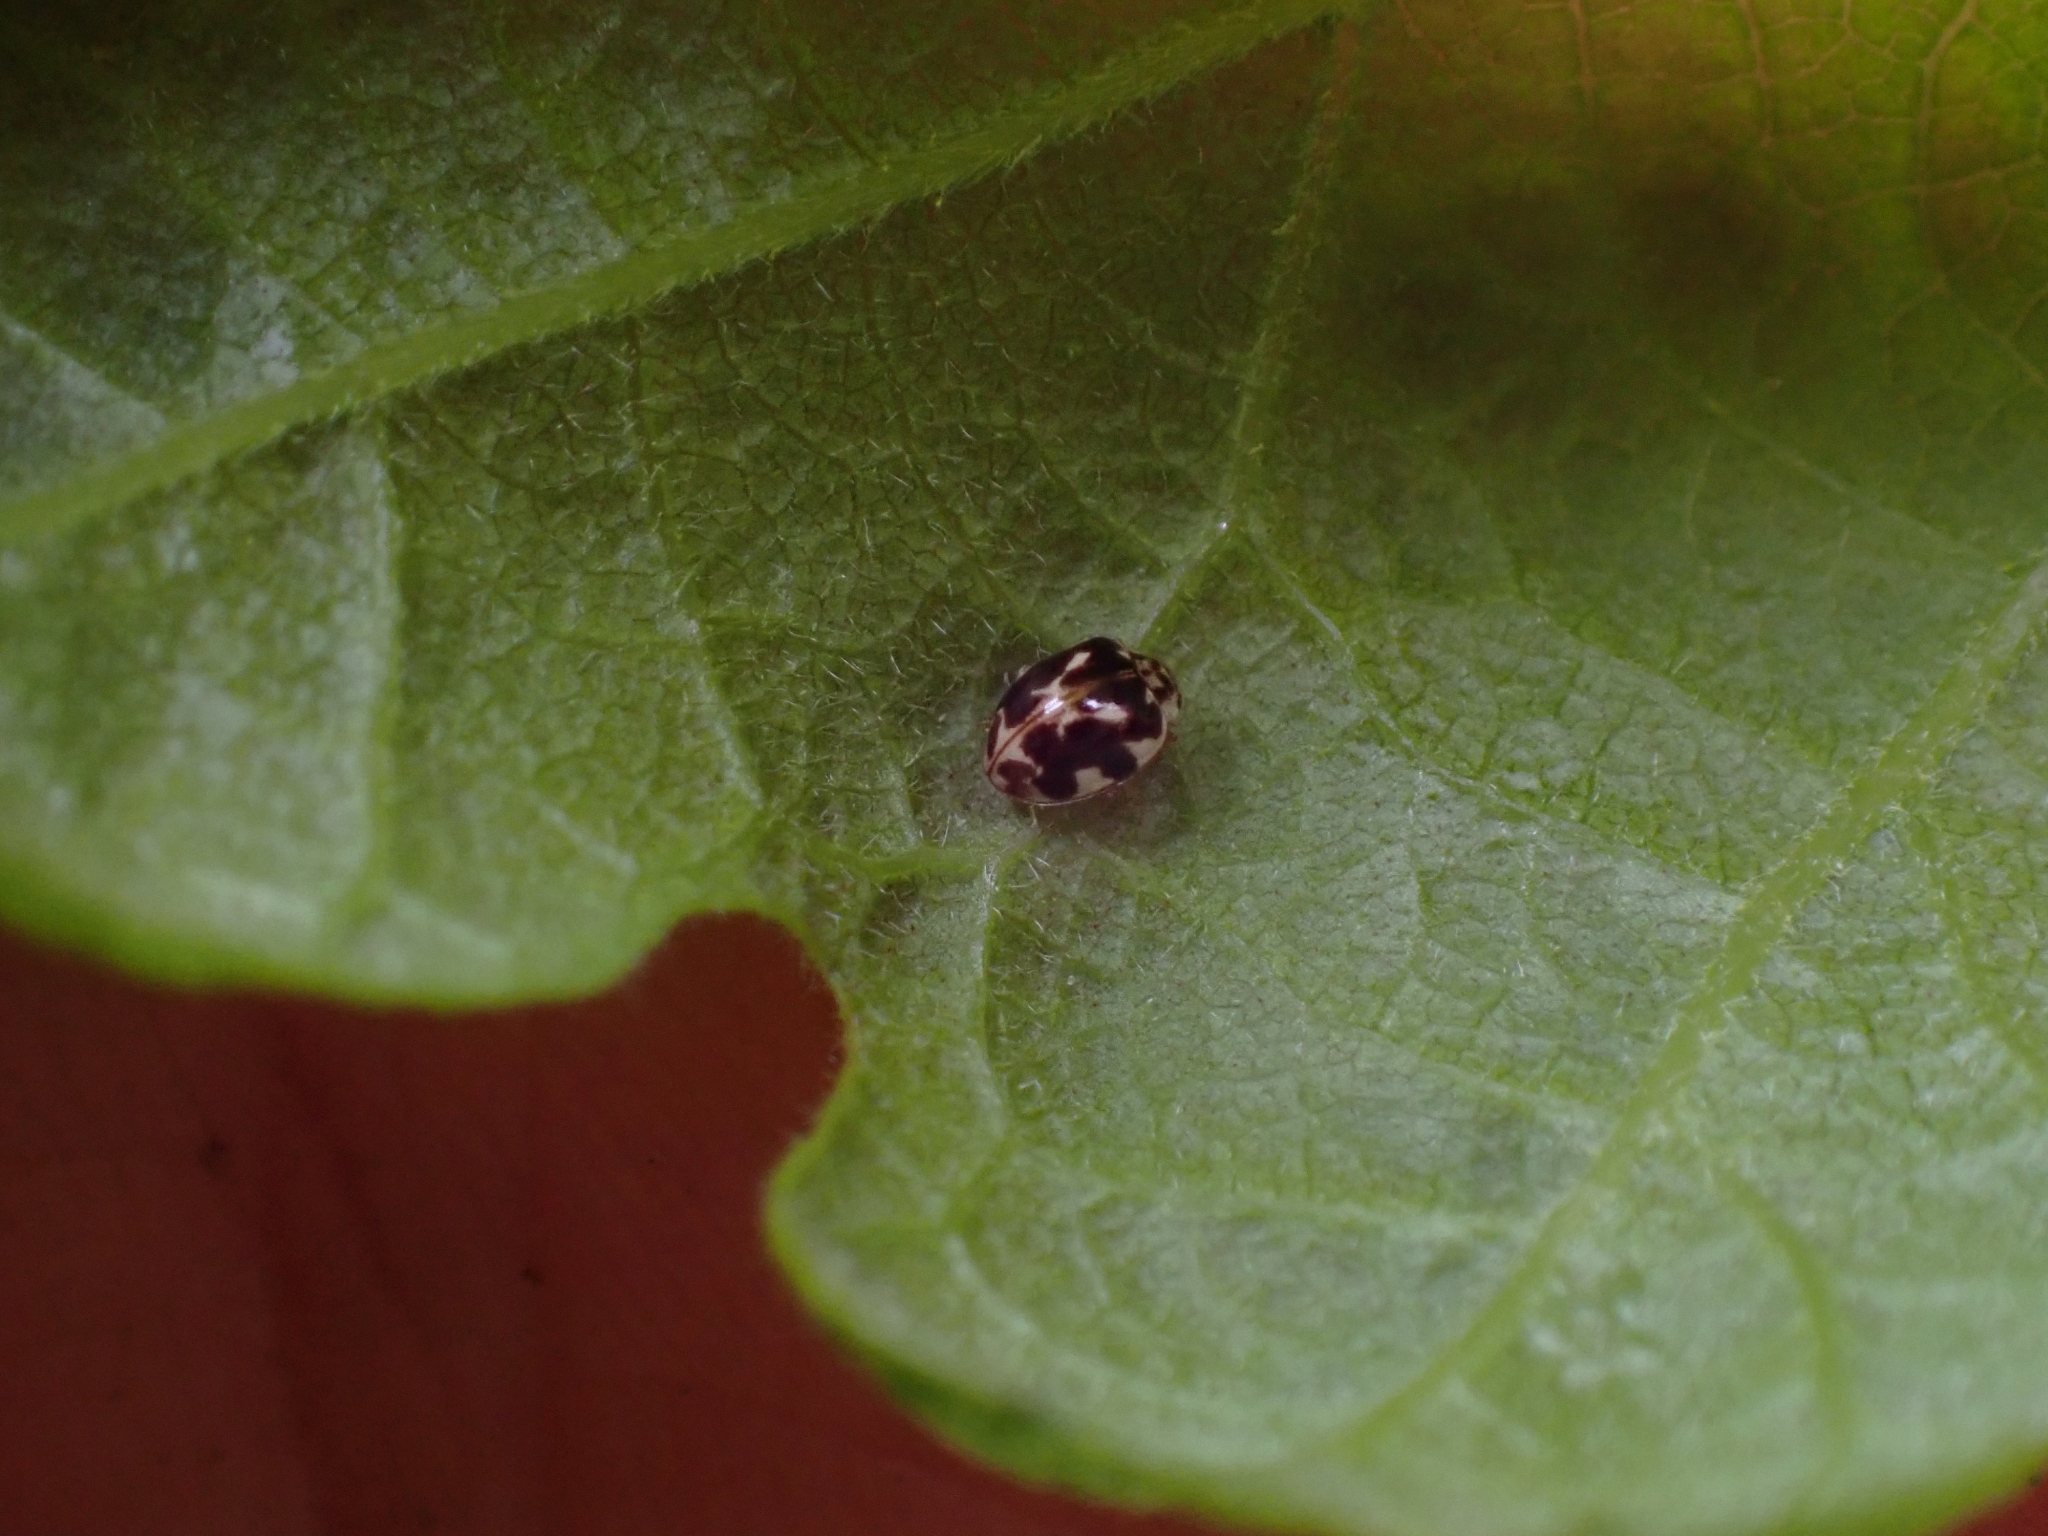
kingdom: Animalia
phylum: Arthropoda
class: Insecta
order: Coleoptera
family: Coccinellidae
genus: Psyllobora
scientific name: Psyllobora vigintimaculata
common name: Ladybird beetle
